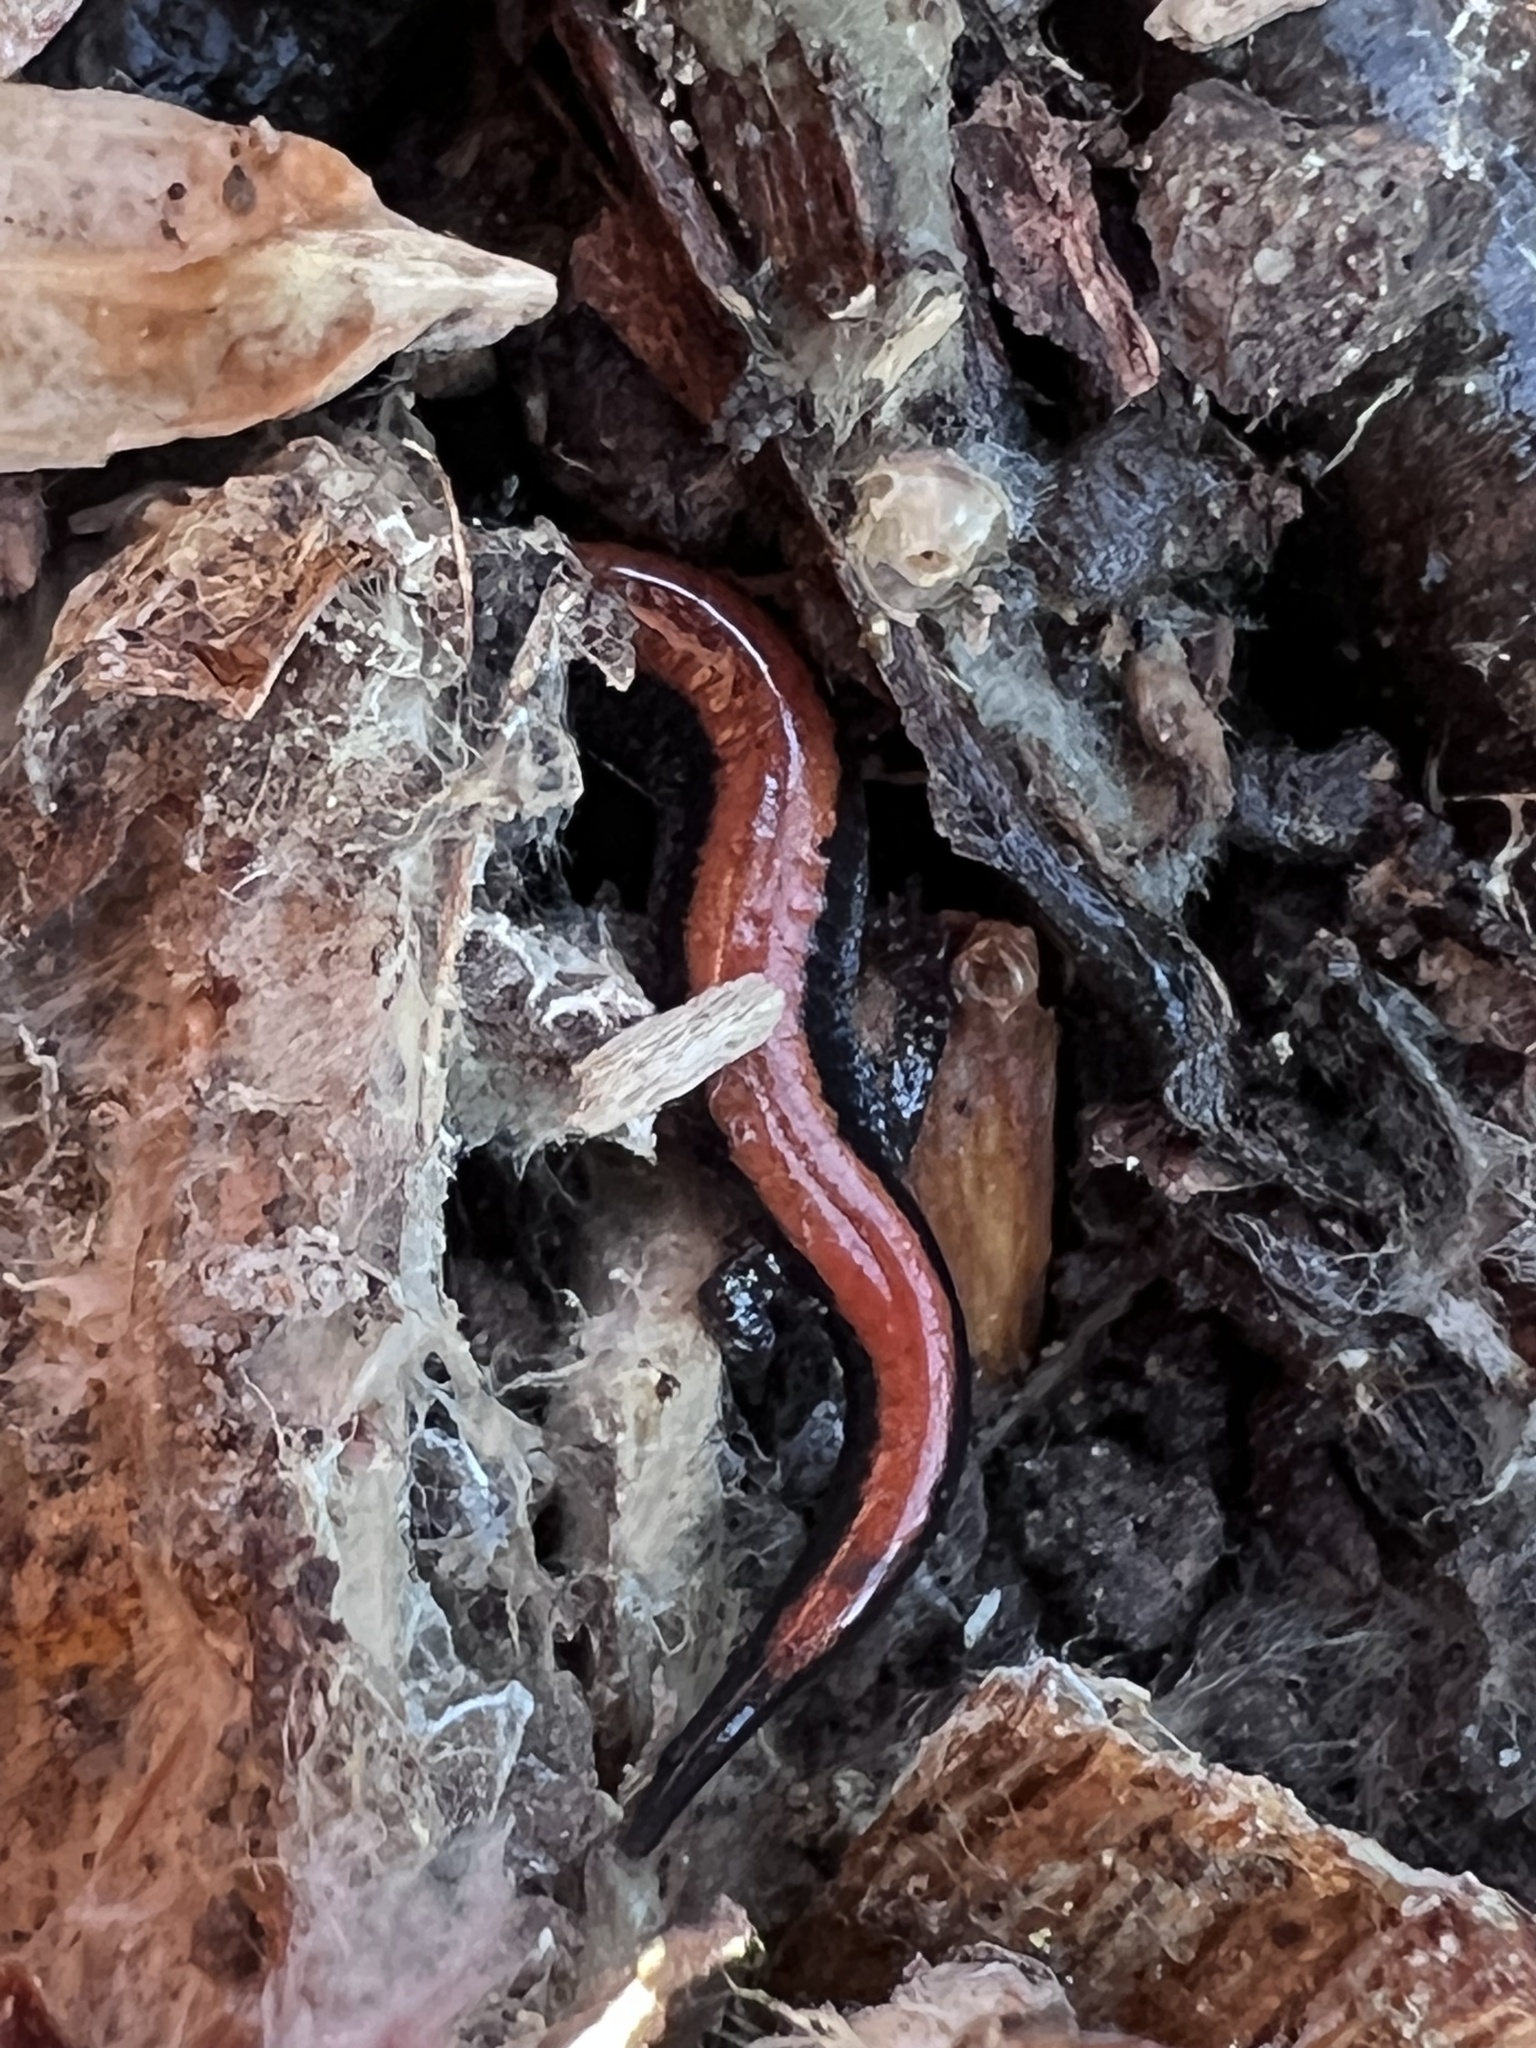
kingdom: Animalia
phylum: Chordata
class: Amphibia
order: Caudata
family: Plethodontidae
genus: Plethodon
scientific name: Plethodon cinereus
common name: Redback salamander
